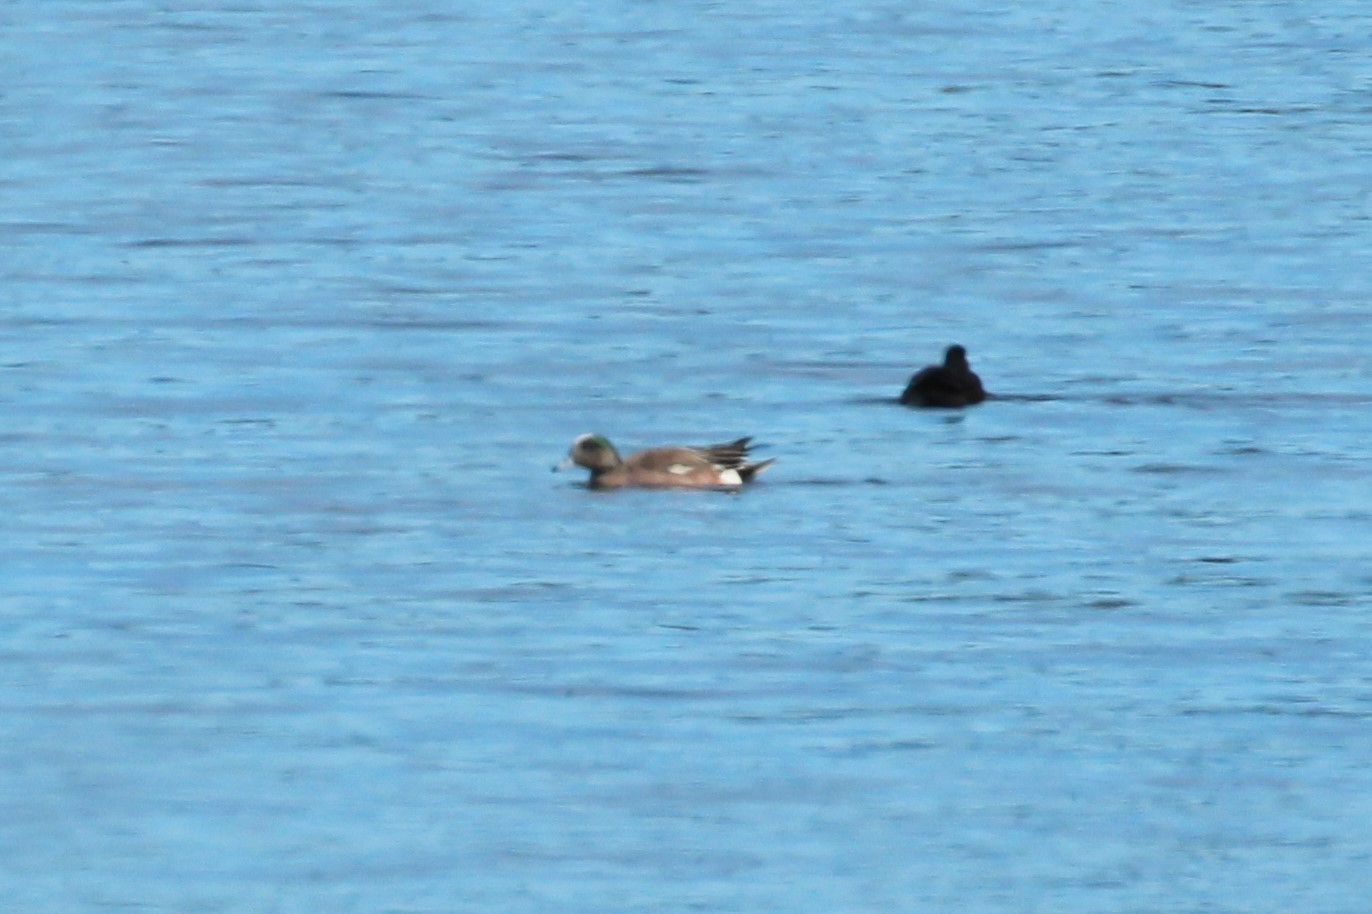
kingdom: Animalia
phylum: Chordata
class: Aves
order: Anseriformes
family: Anatidae
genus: Mareca
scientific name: Mareca americana
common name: American wigeon
